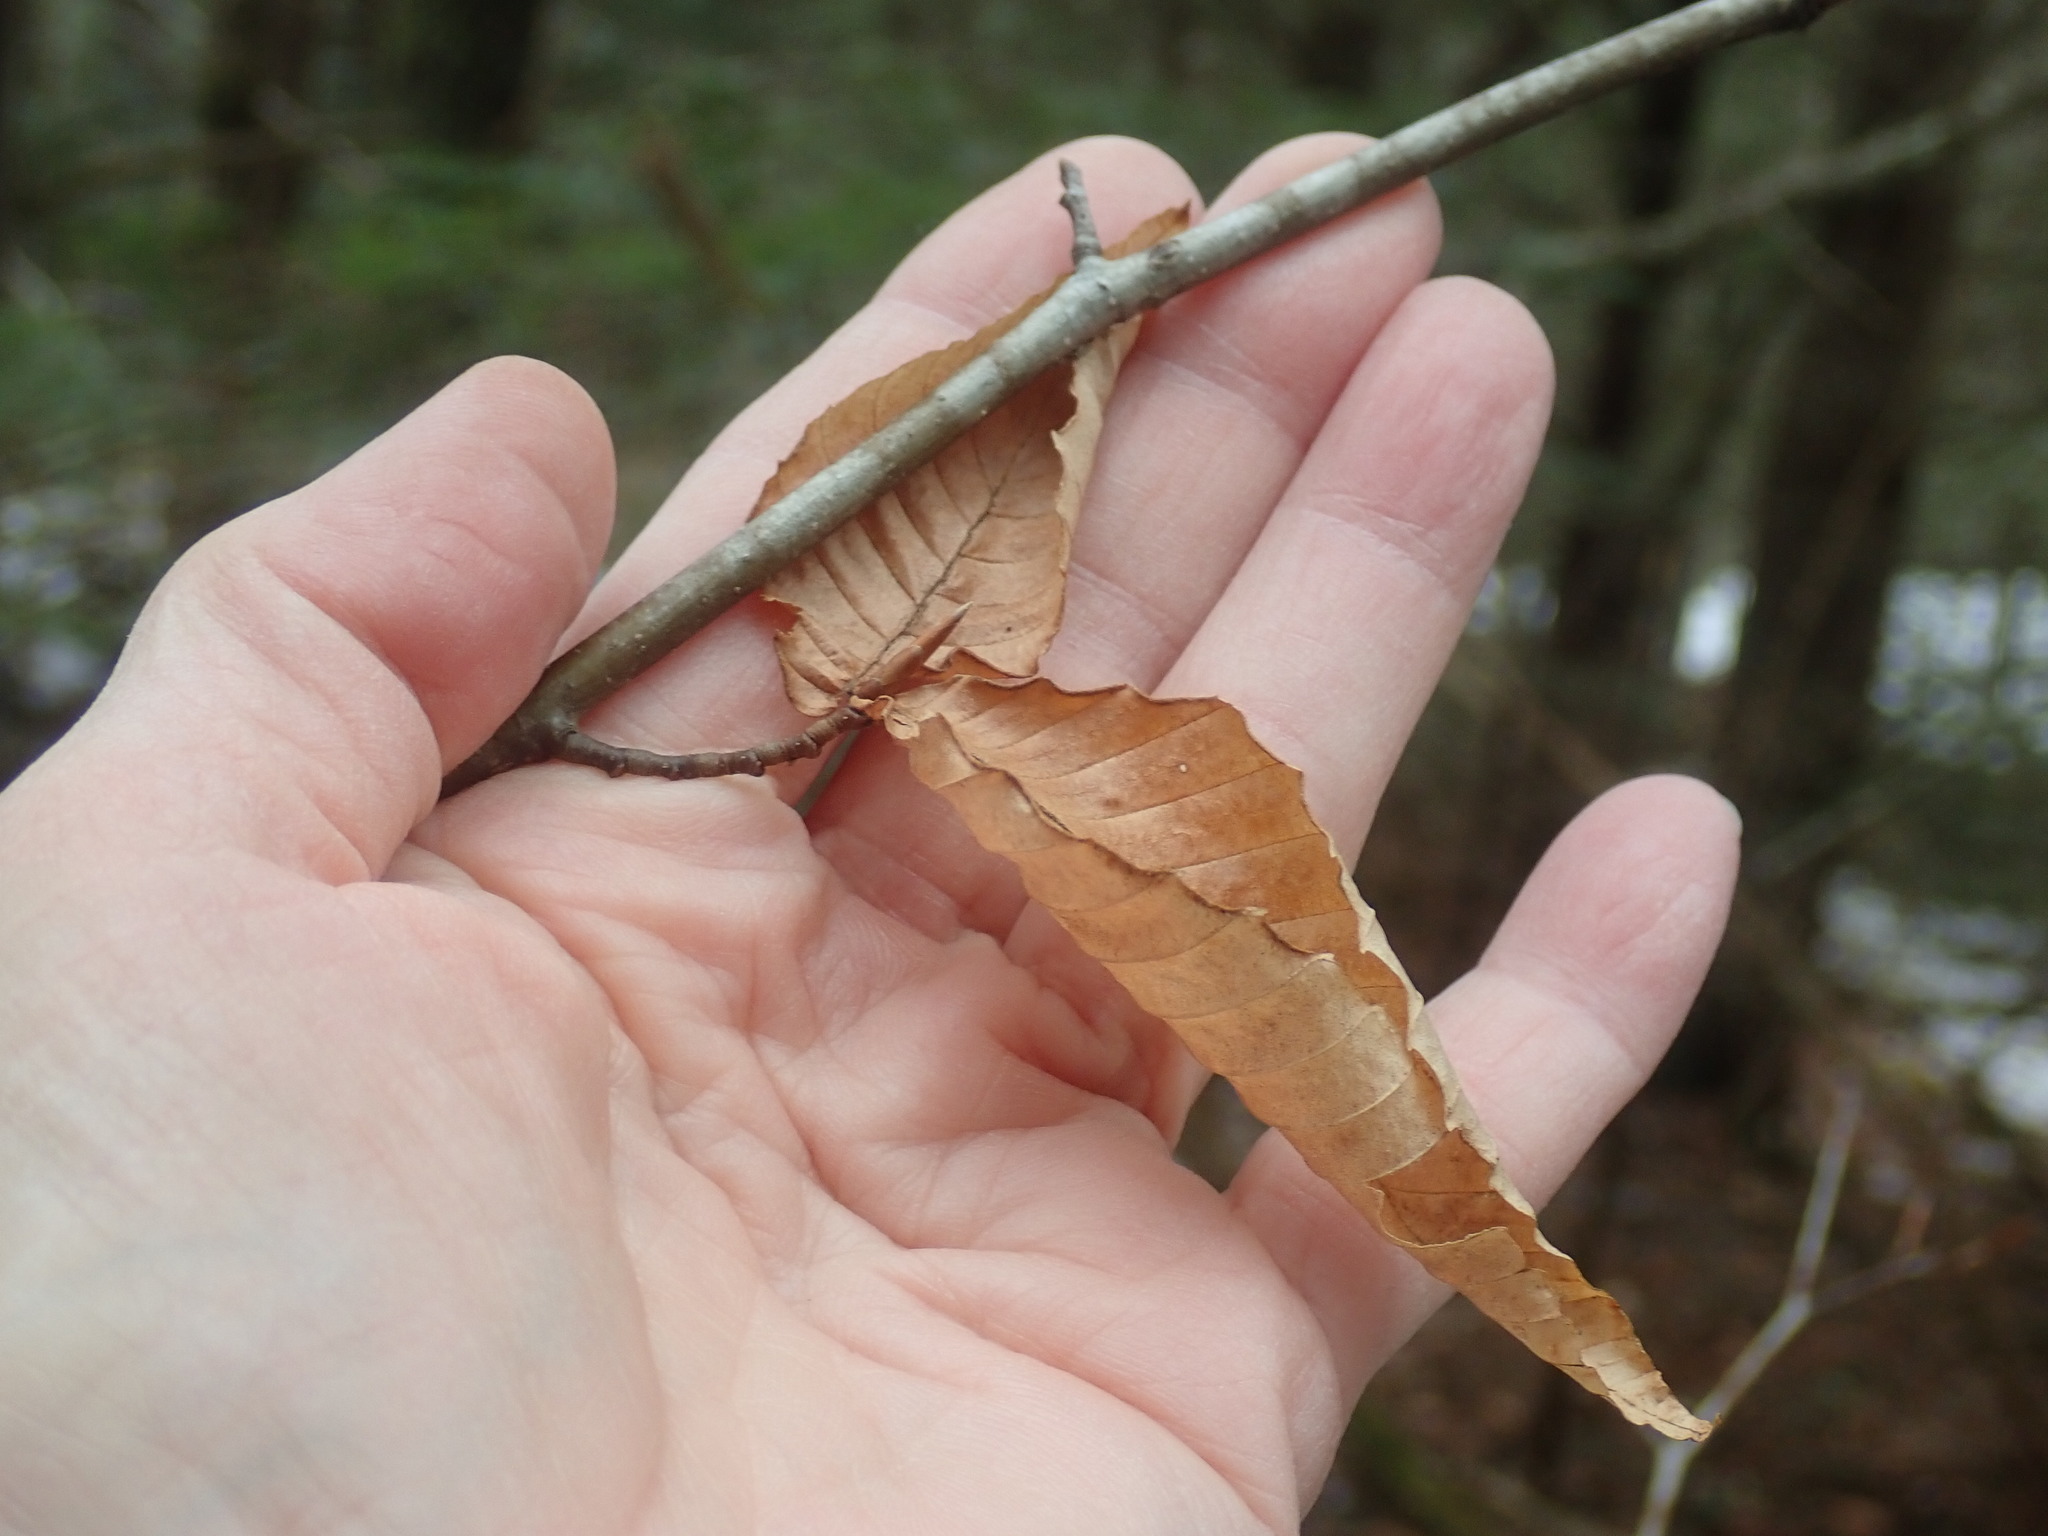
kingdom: Plantae
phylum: Tracheophyta
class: Magnoliopsida
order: Fagales
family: Fagaceae
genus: Fagus
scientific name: Fagus grandifolia
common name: American beech
